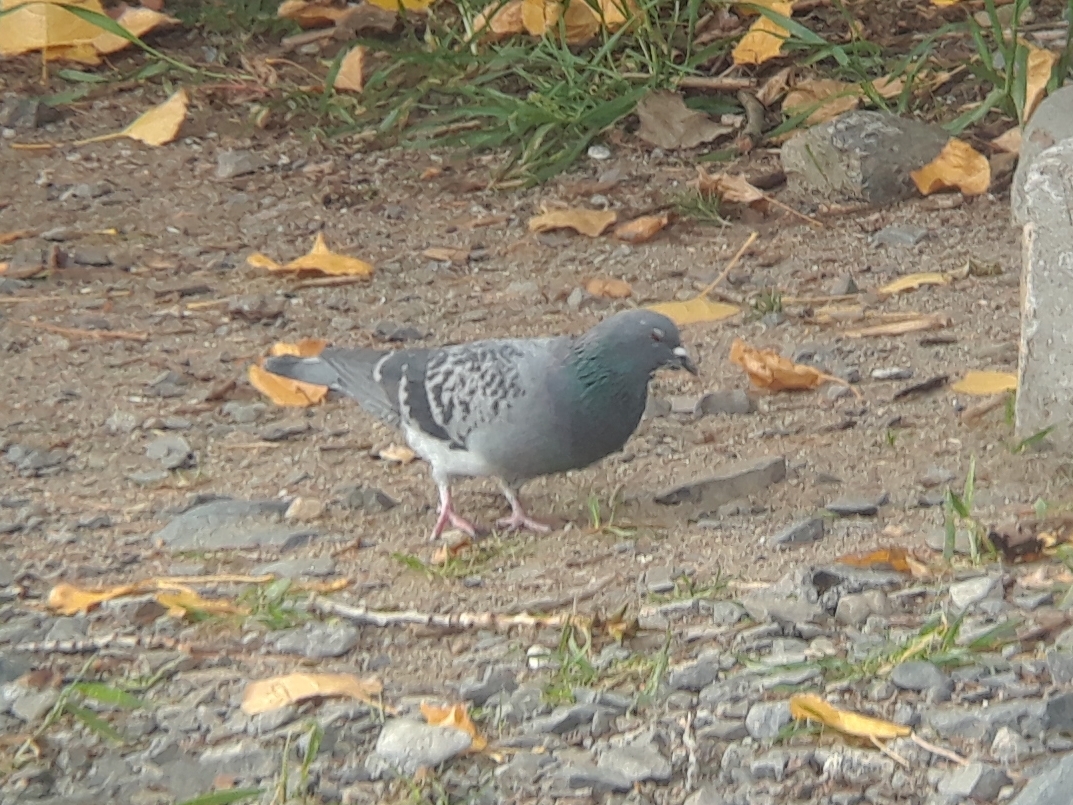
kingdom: Animalia
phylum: Chordata
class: Aves
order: Columbiformes
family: Columbidae
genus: Columba
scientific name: Columba livia
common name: Rock pigeon
